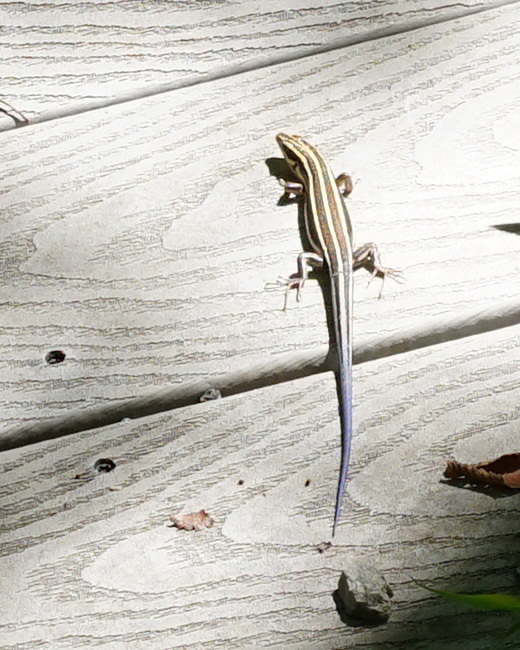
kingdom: Animalia
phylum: Chordata
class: Squamata
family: Scincidae
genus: Plestiodon
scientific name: Plestiodon fasciatus
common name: Five-lined skink
